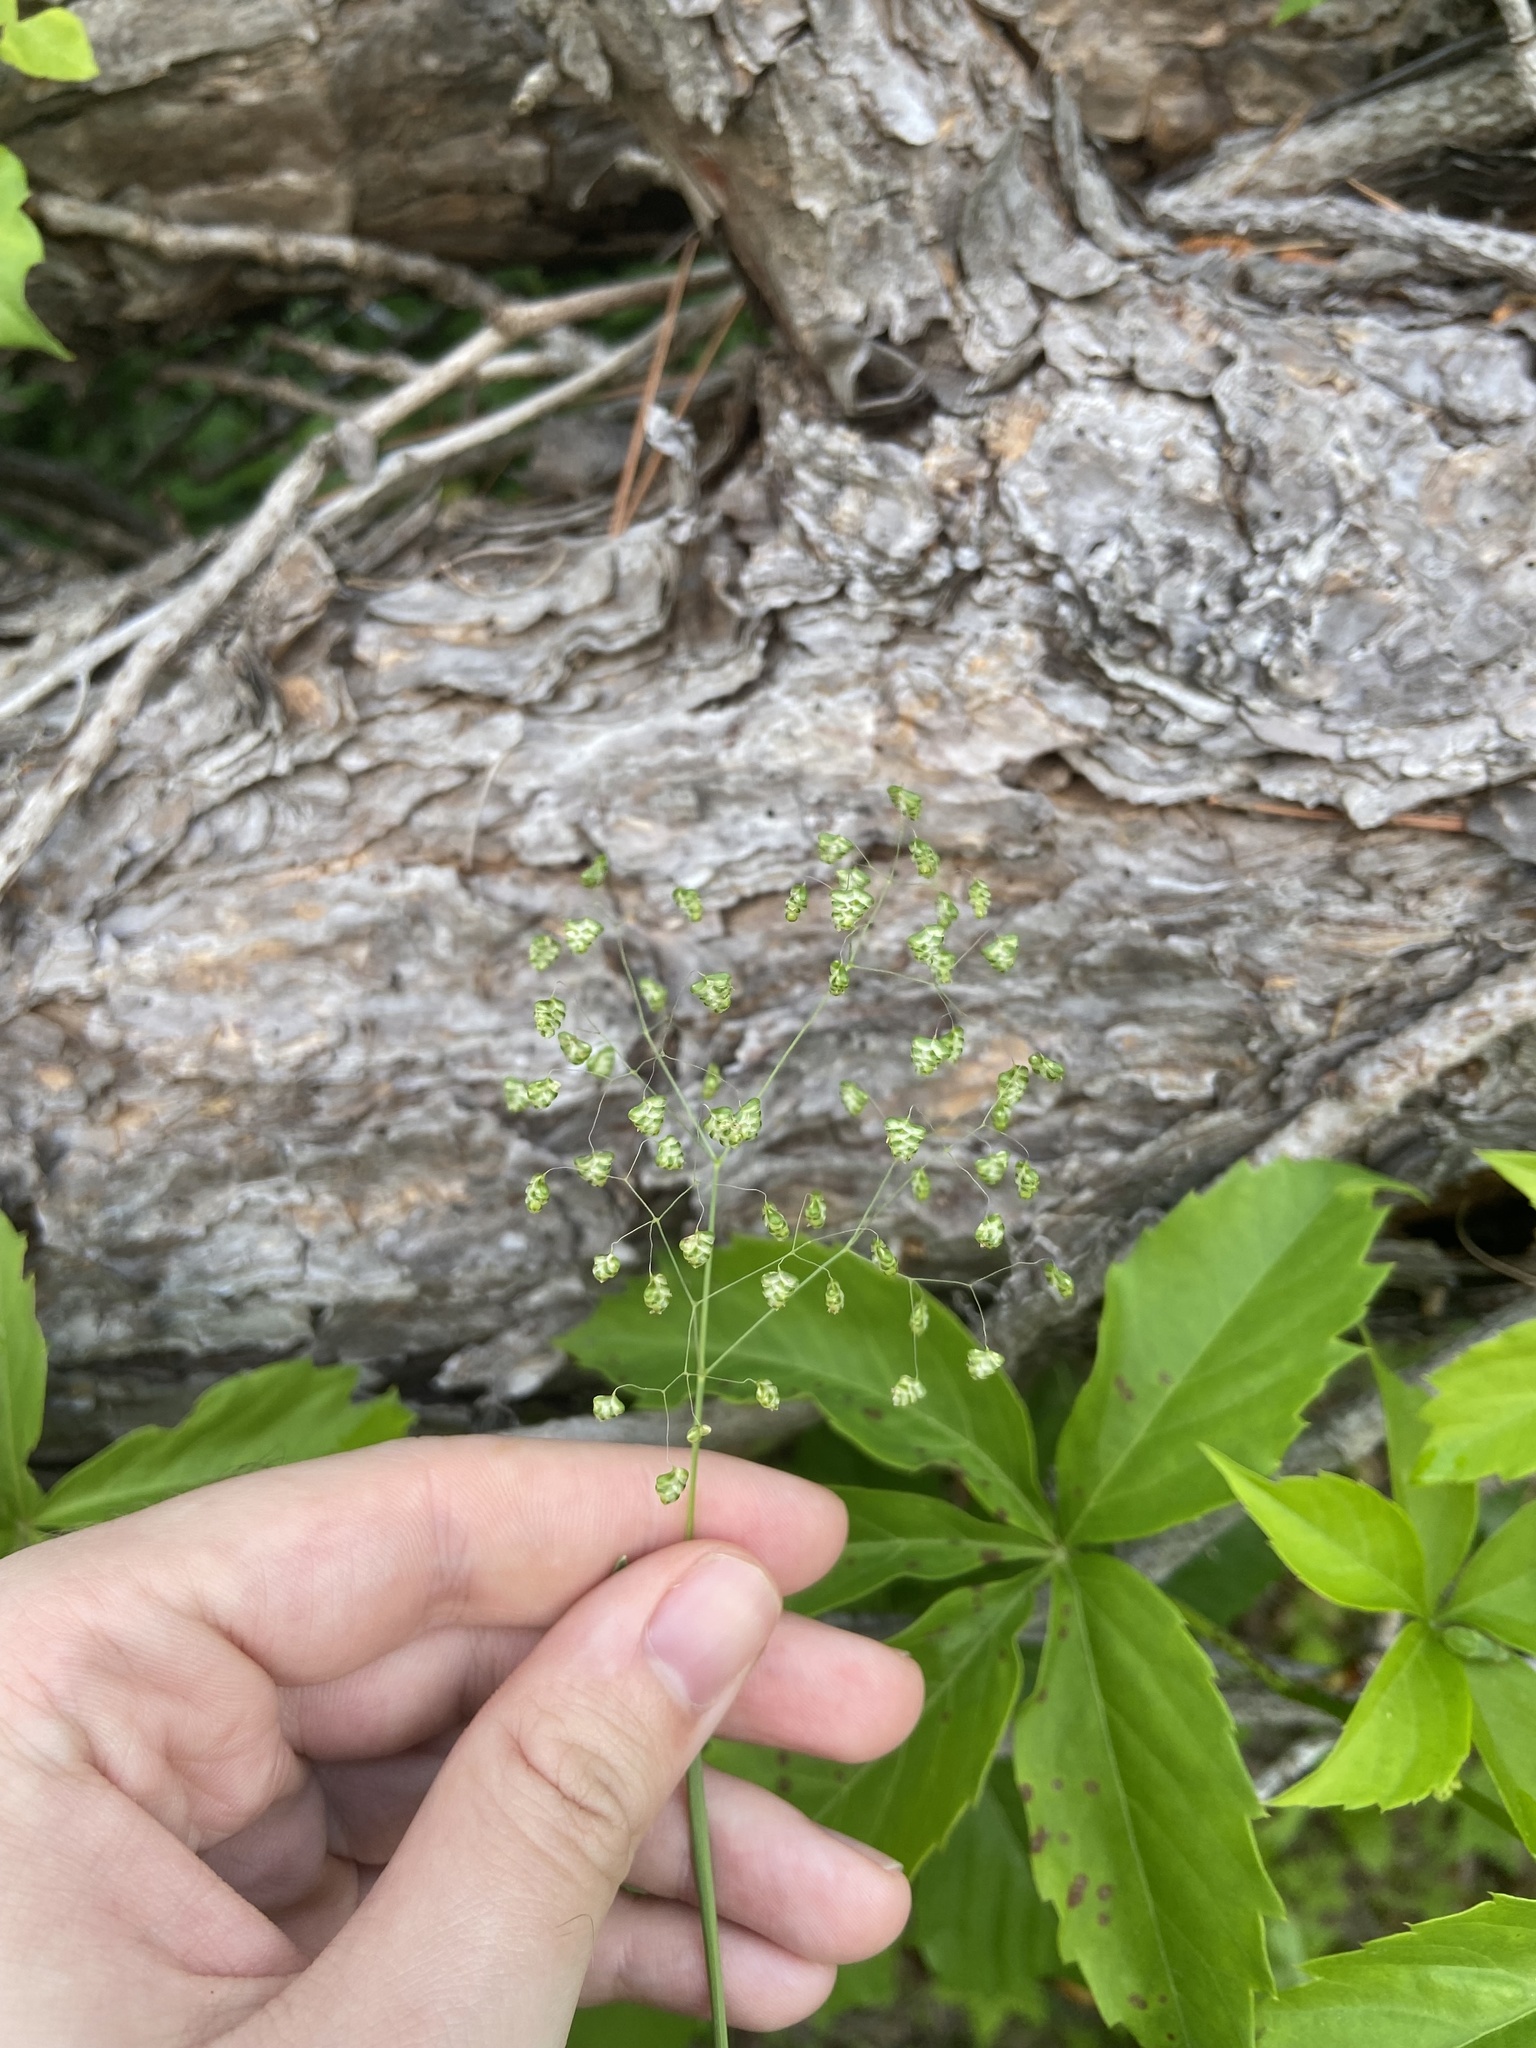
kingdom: Plantae
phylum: Tracheophyta
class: Liliopsida
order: Poales
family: Poaceae
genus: Briza
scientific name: Briza minor
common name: Lesser quaking-grass
